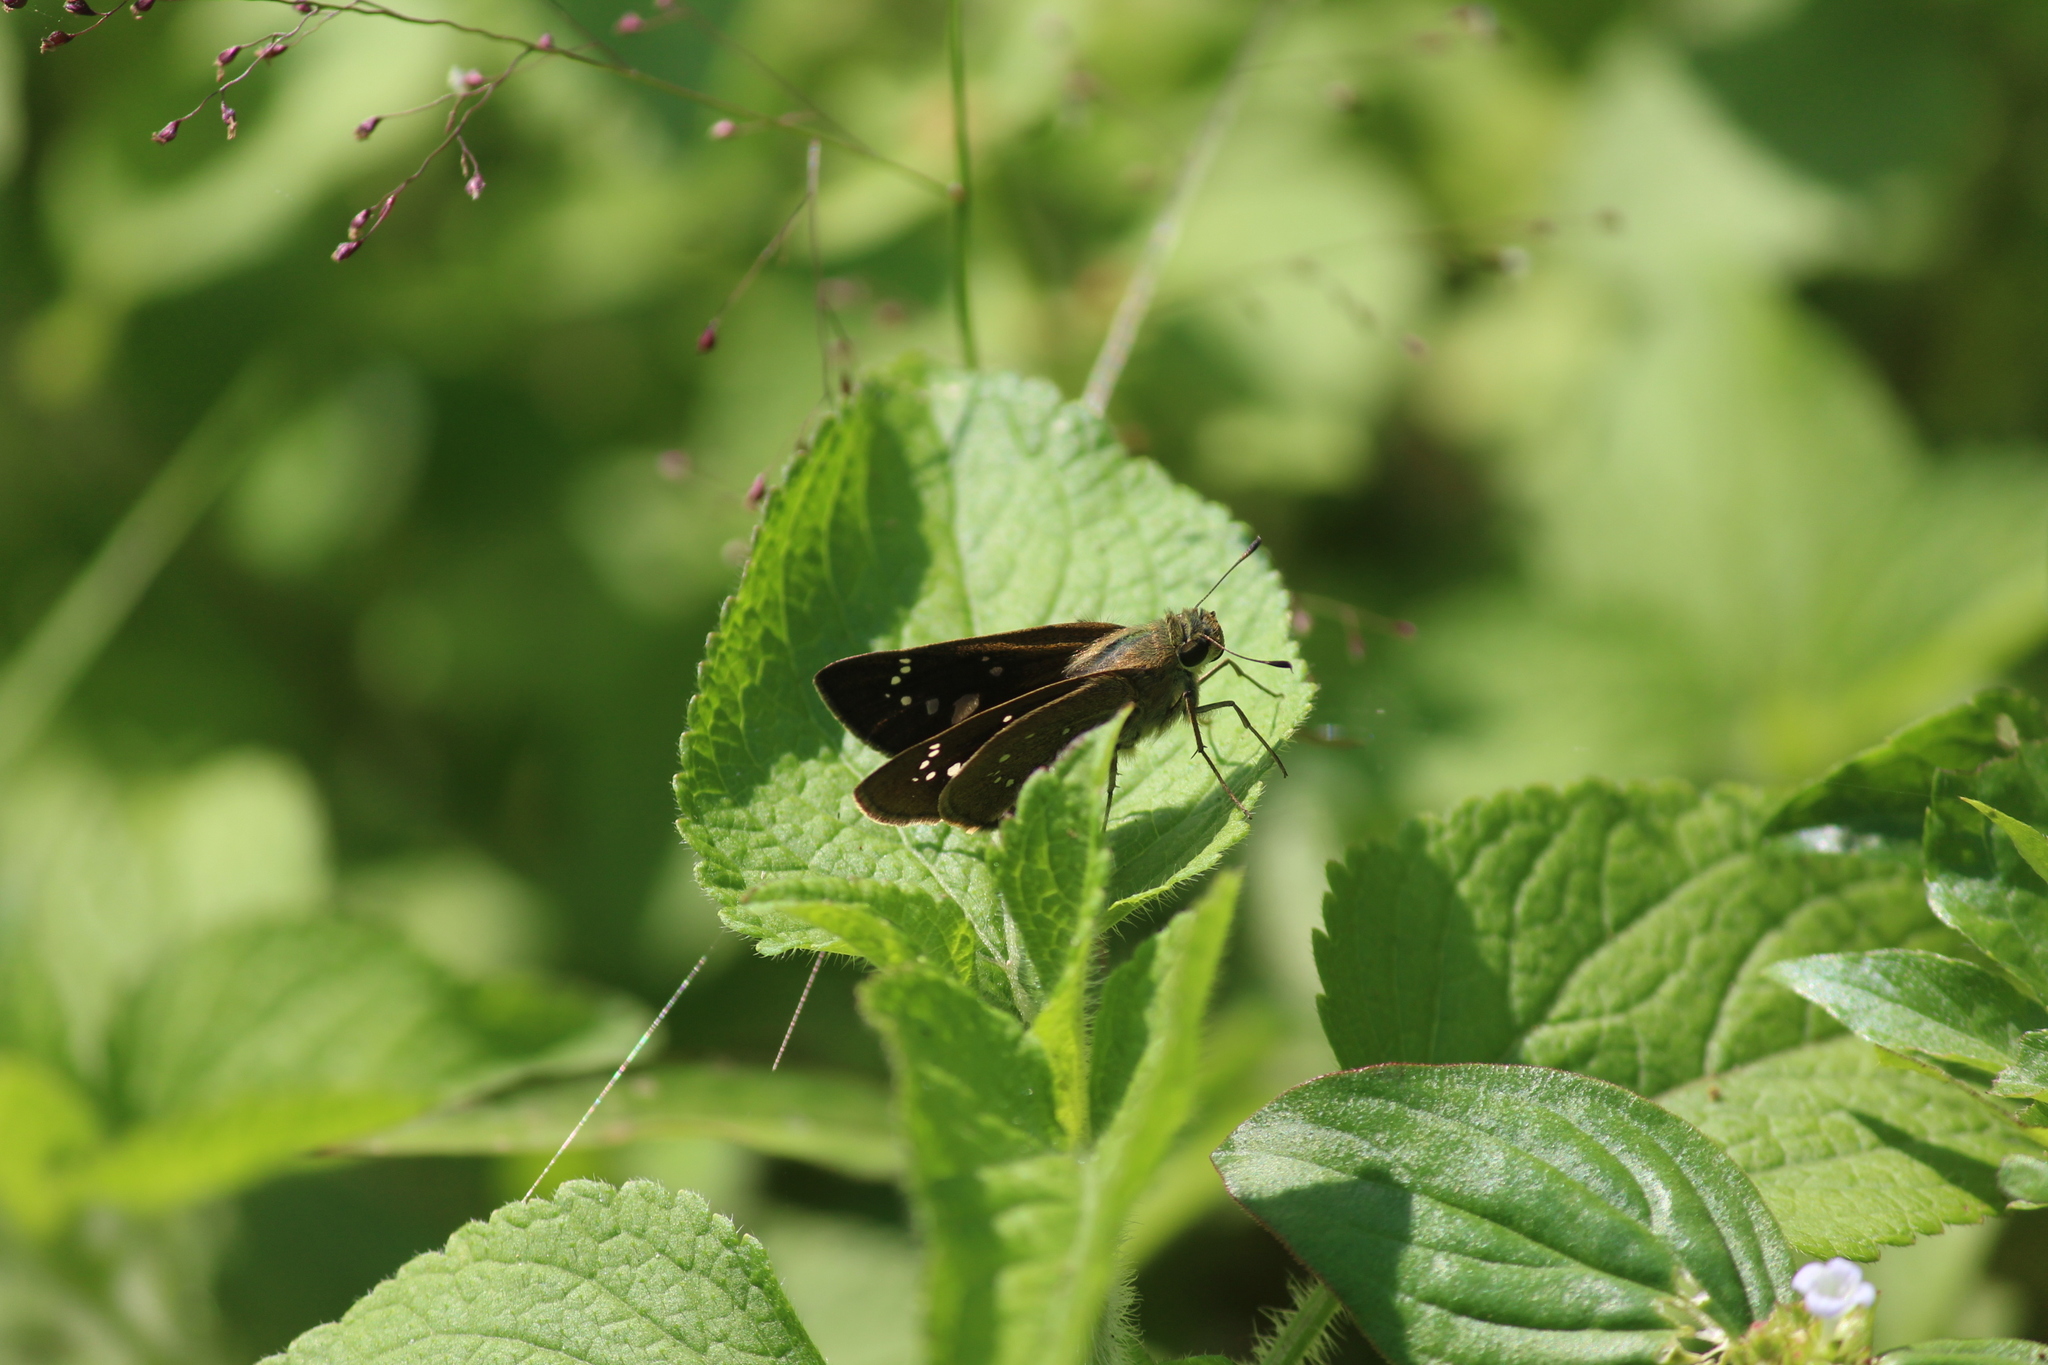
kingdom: Animalia
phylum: Arthropoda
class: Insecta
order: Lepidoptera
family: Hesperiidae
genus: Pelopidas
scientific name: Pelopidas mathias
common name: Black-branded swift
